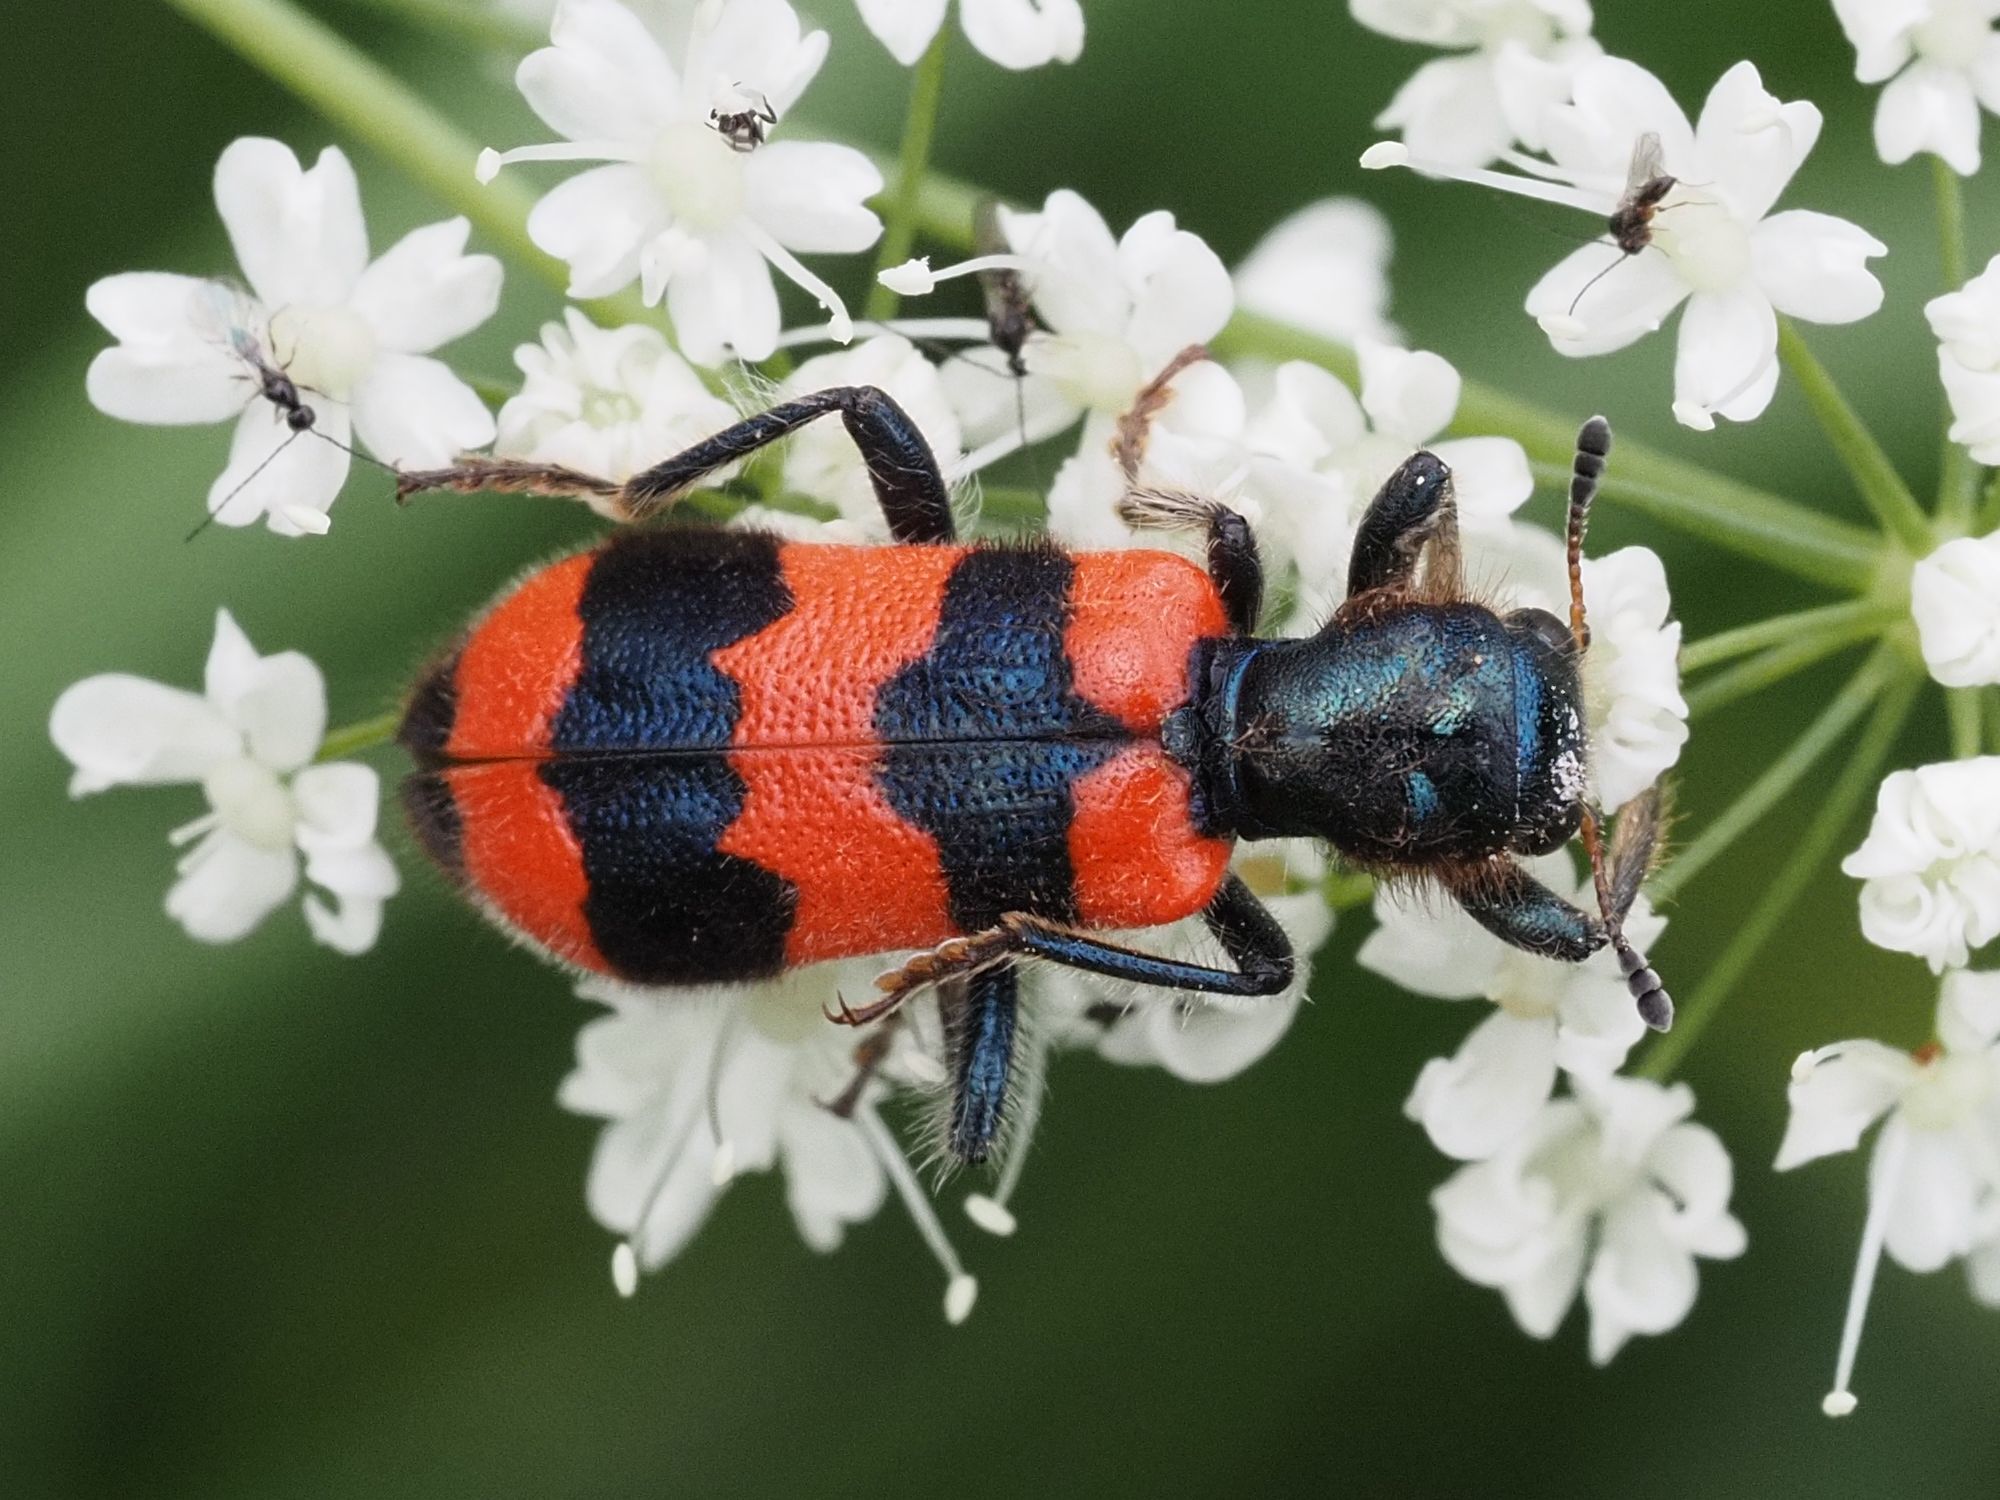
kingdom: Animalia
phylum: Arthropoda
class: Insecta
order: Coleoptera
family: Cleridae
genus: Trichodes
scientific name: Trichodes apiarius
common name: Bee-eating beetle
